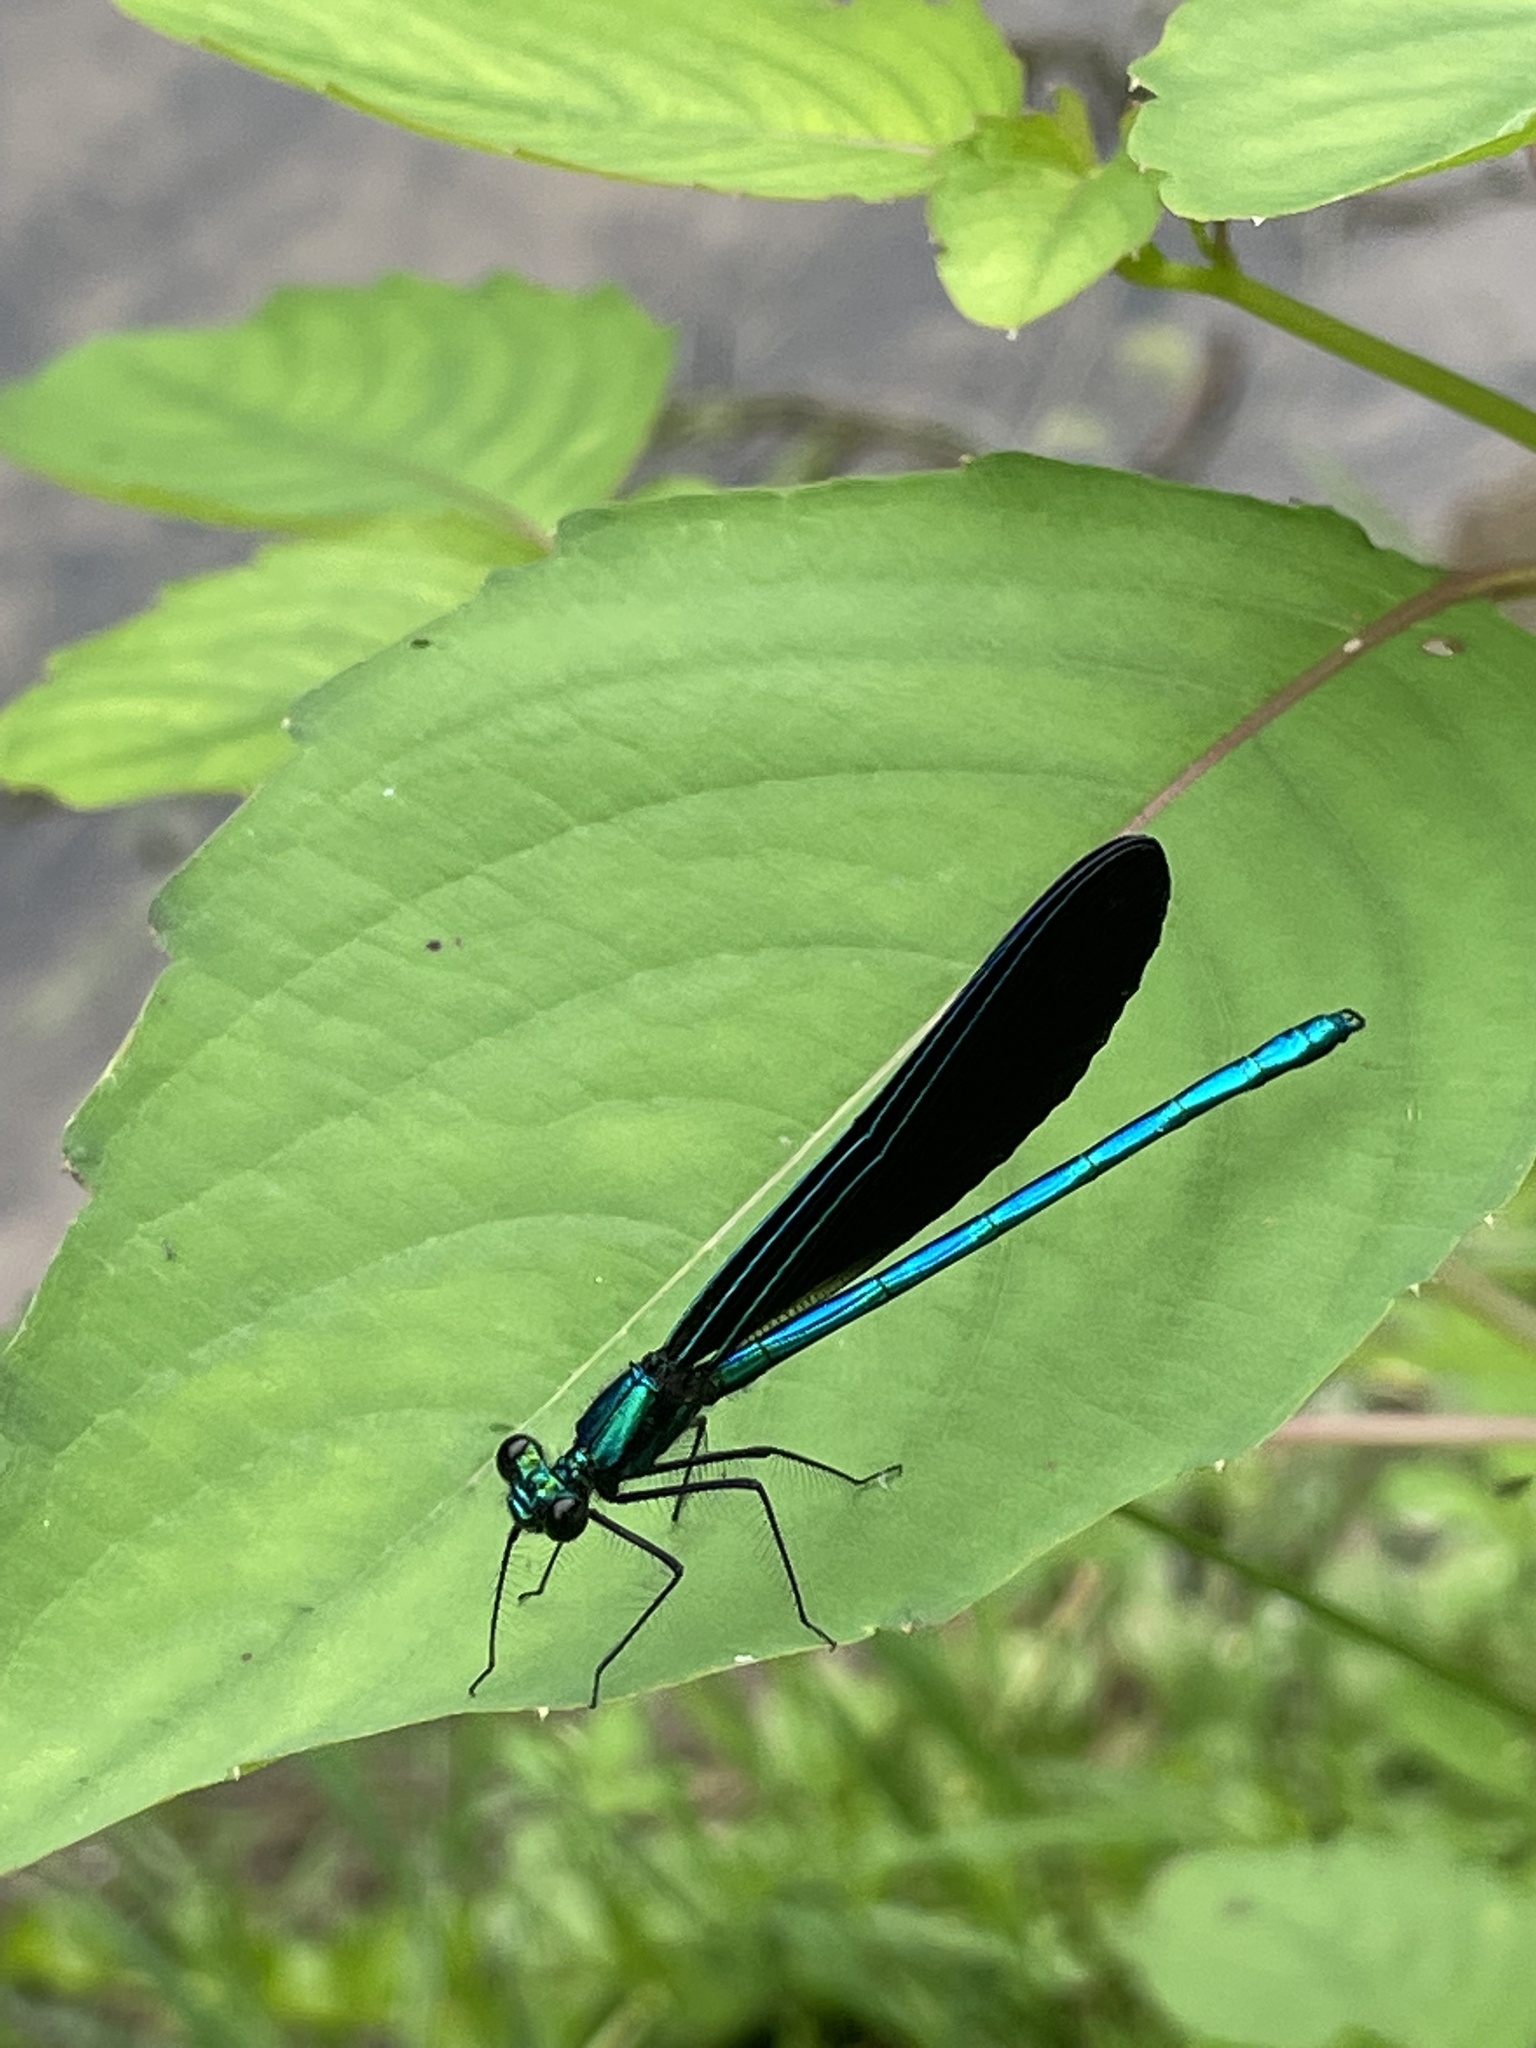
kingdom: Animalia
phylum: Arthropoda
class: Insecta
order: Odonata
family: Calopterygidae
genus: Calopteryx
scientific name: Calopteryx maculata
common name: Ebony jewelwing
